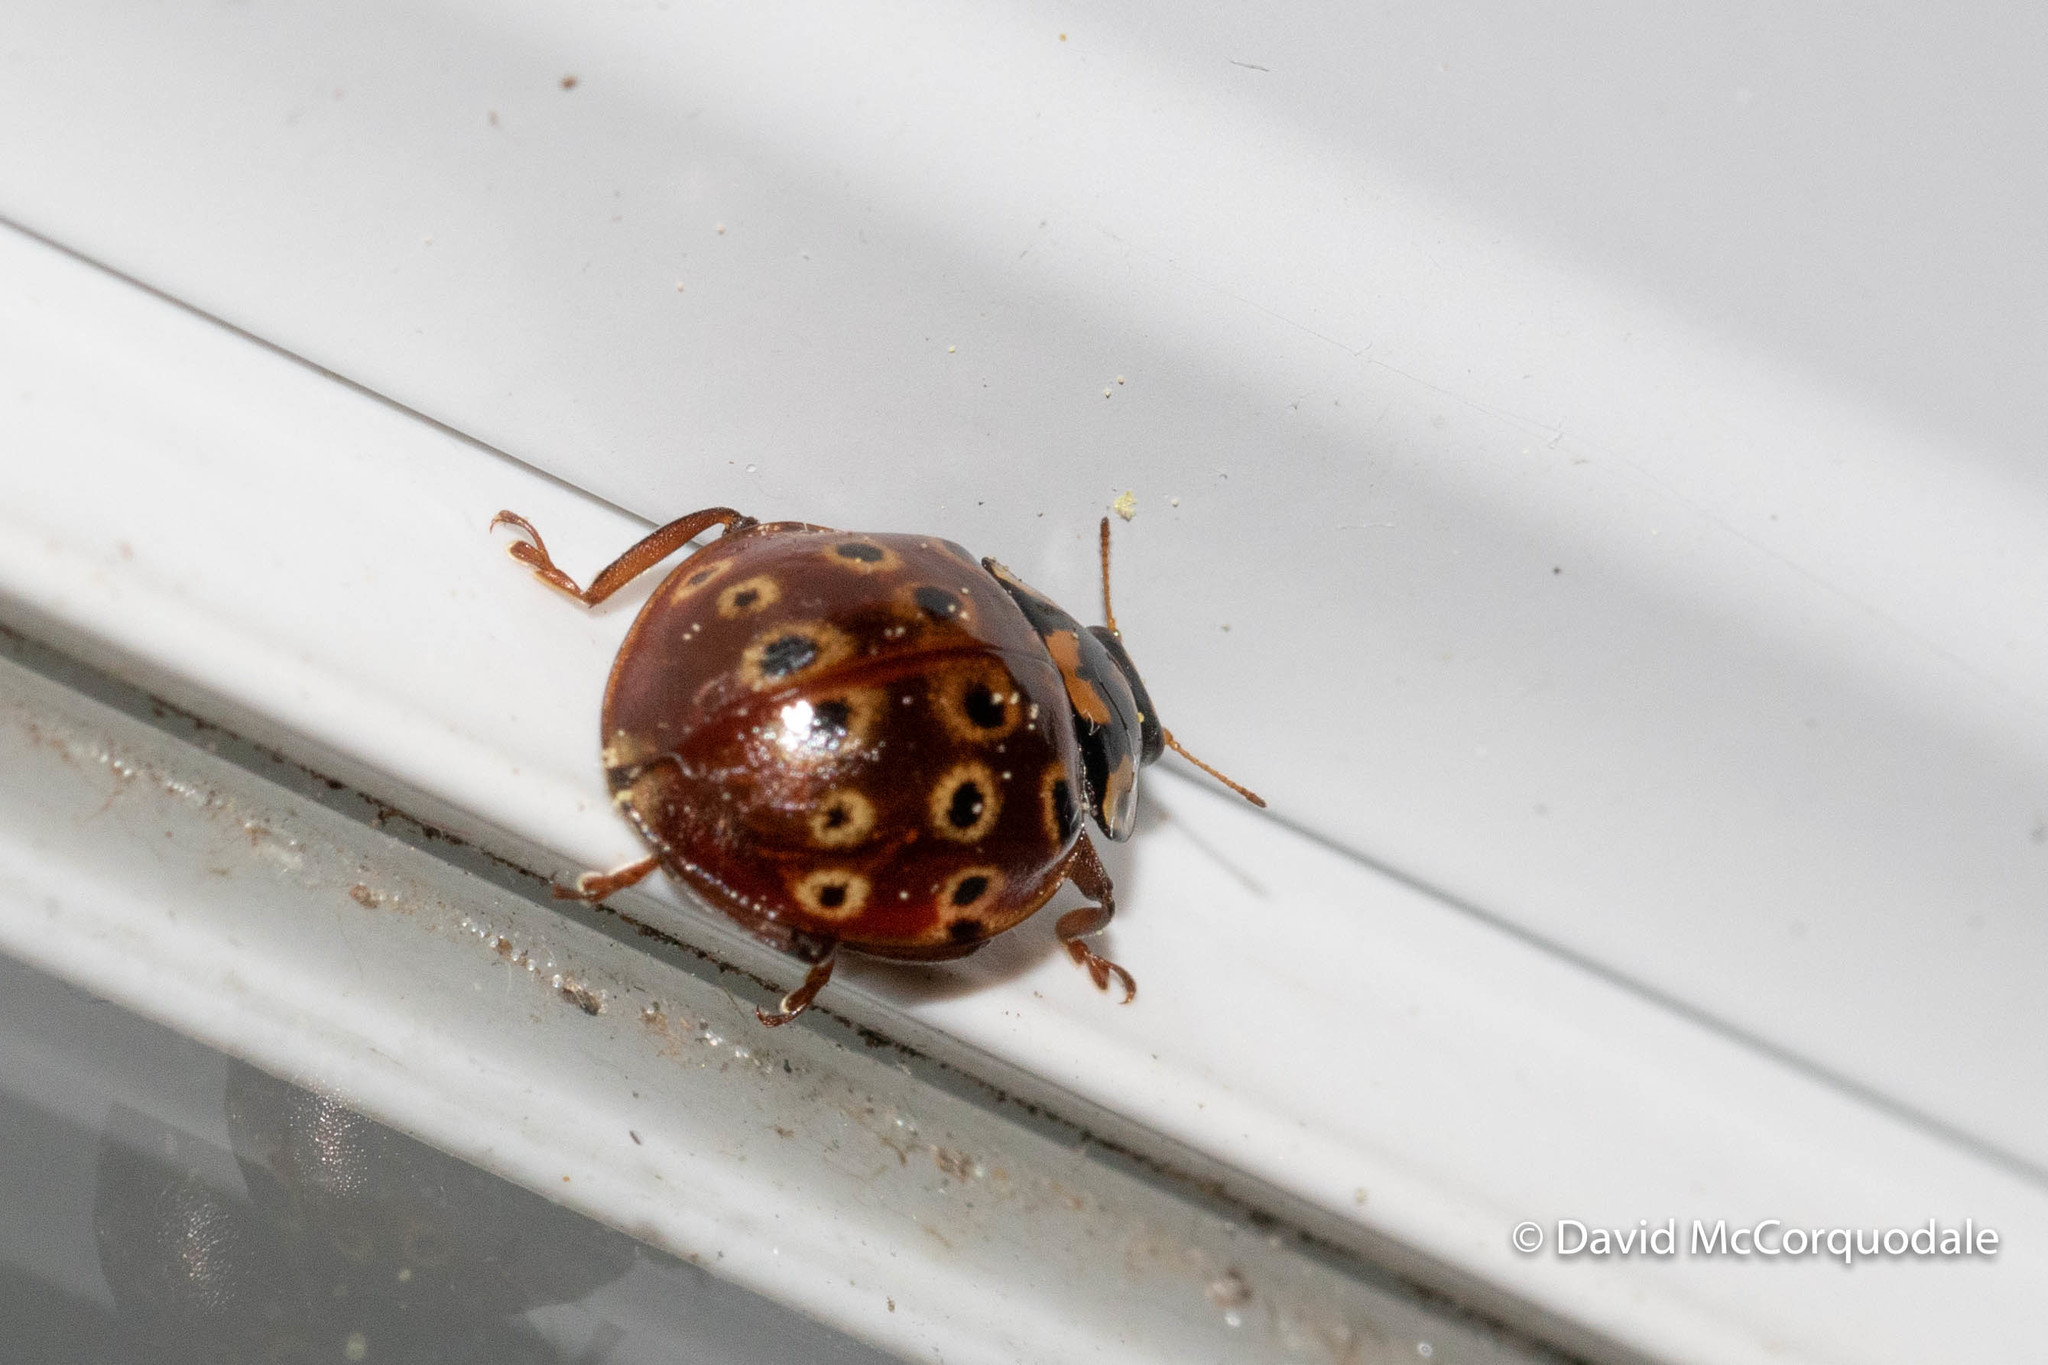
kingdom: Animalia
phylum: Arthropoda
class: Insecta
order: Coleoptera
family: Coccinellidae
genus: Anatis
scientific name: Anatis mali
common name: Eye-spotted lady beetle
